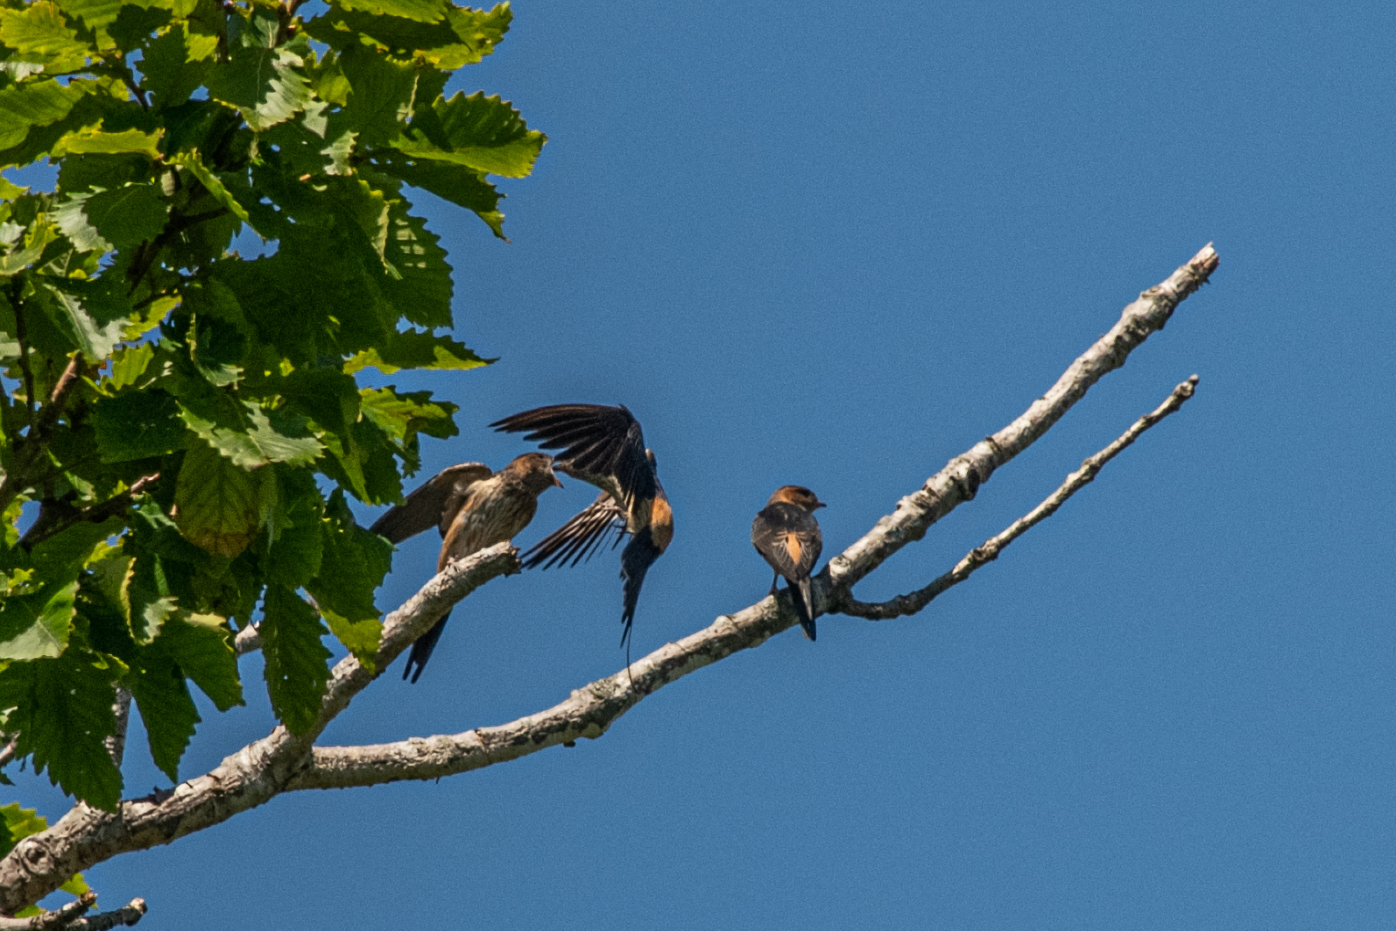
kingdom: Animalia
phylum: Chordata
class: Aves
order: Passeriformes
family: Hirundinidae
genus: Cecropis
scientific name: Cecropis daurica
